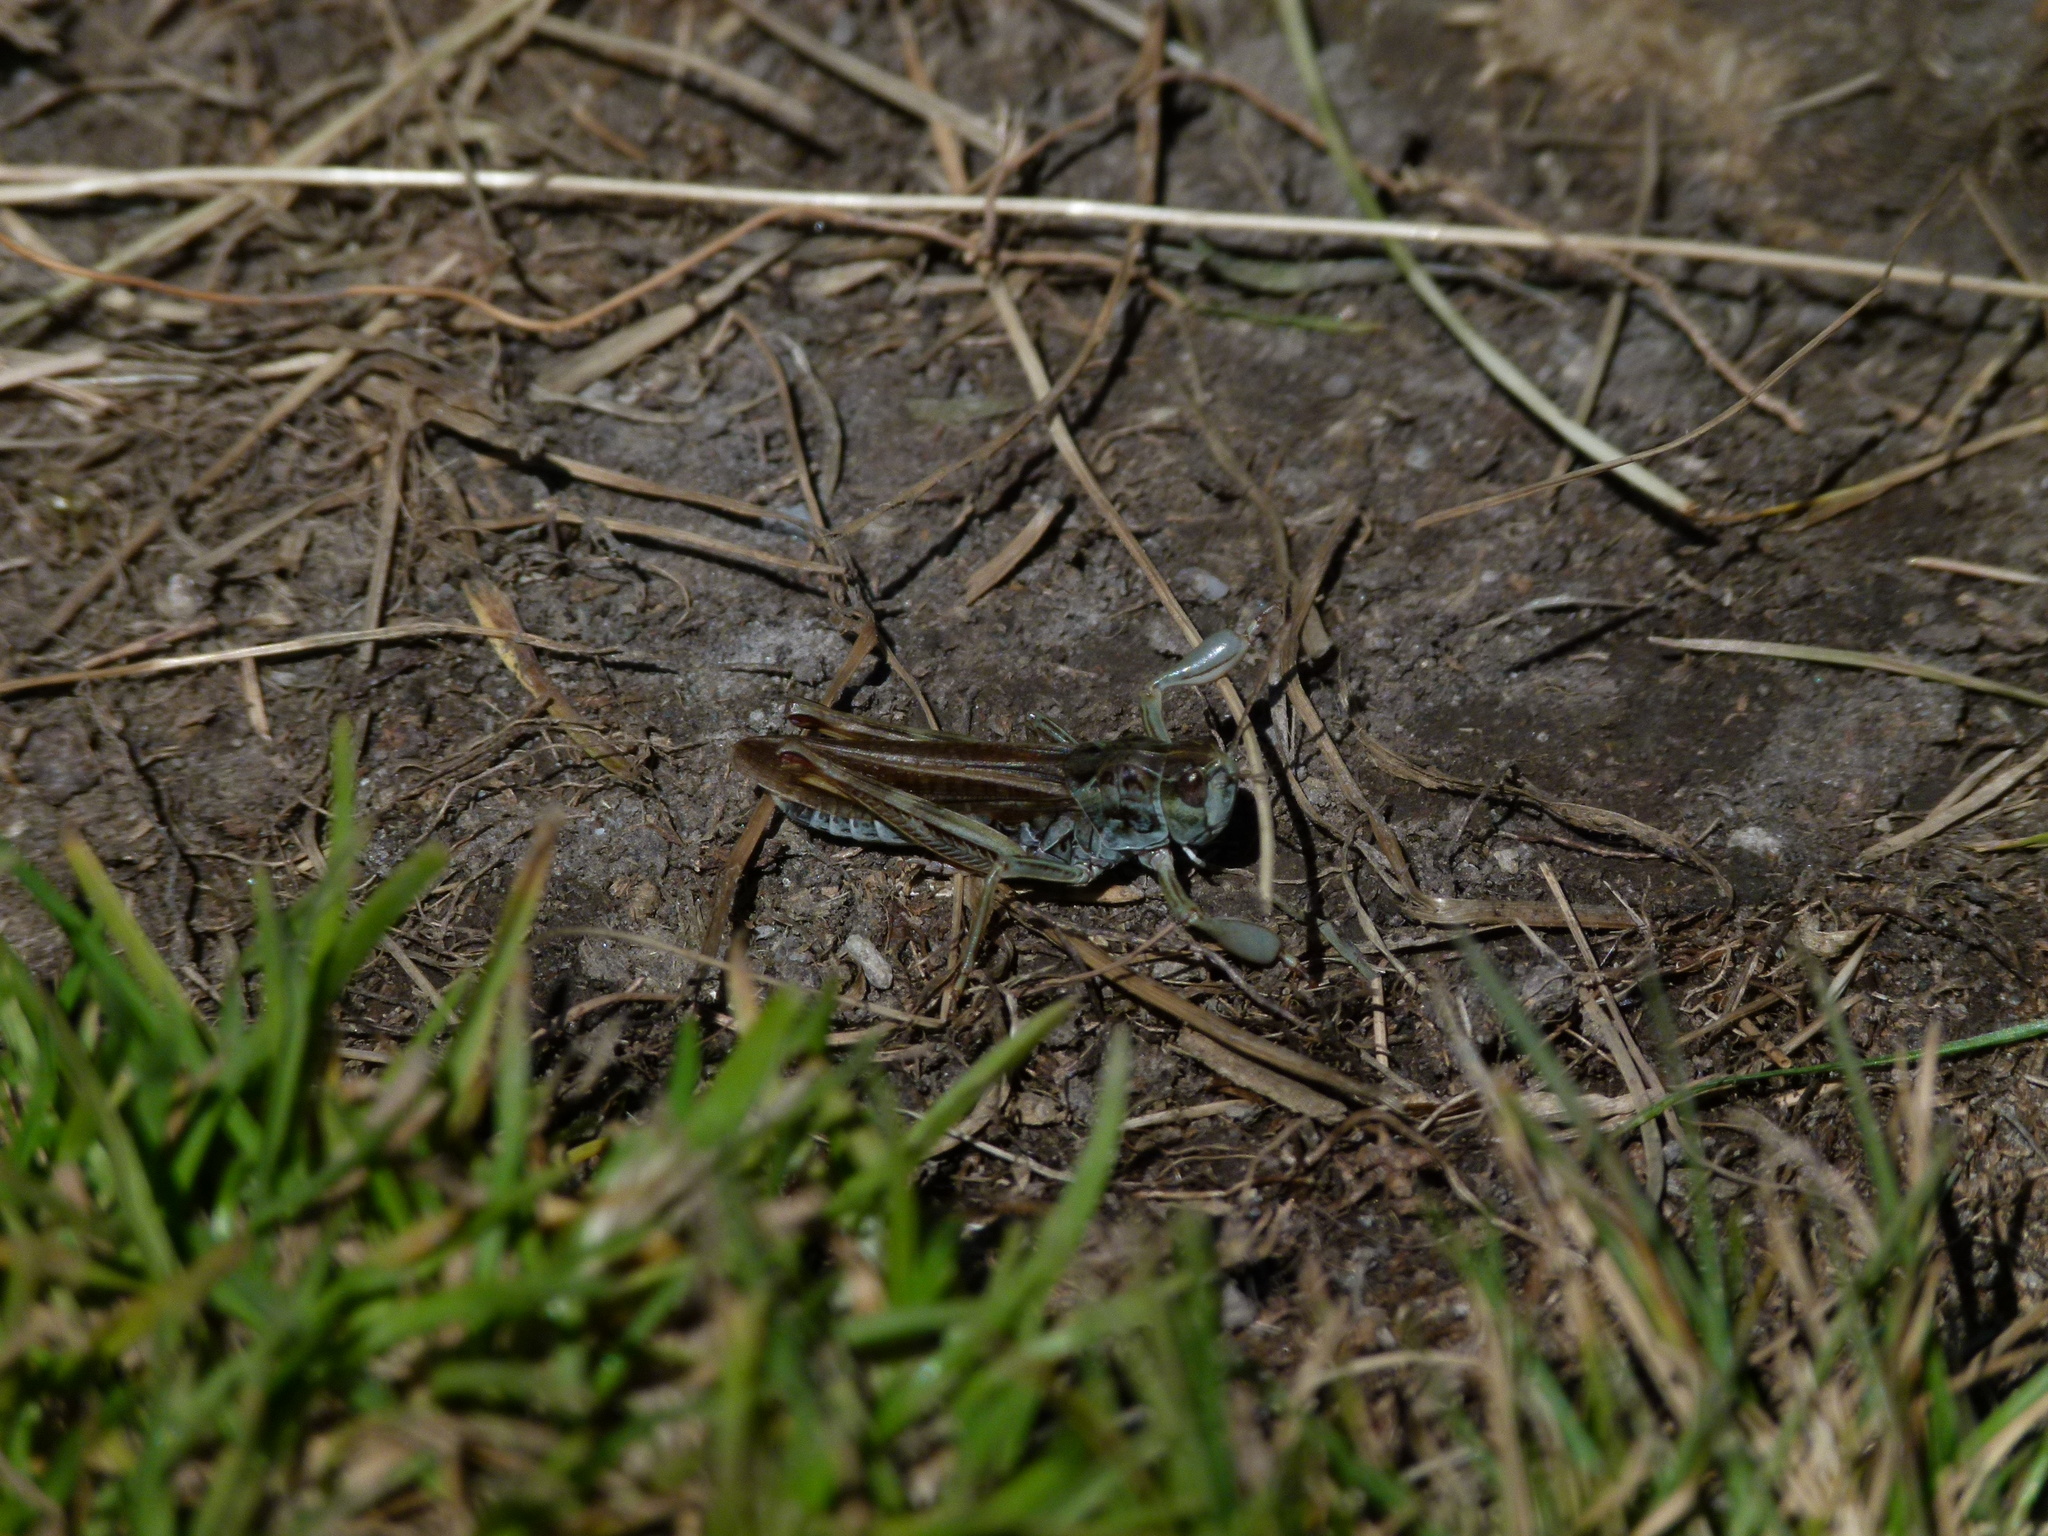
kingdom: Animalia
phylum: Arthropoda
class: Insecta
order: Orthoptera
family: Acrididae
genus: Gomphocerus
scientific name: Gomphocerus sibiricus
